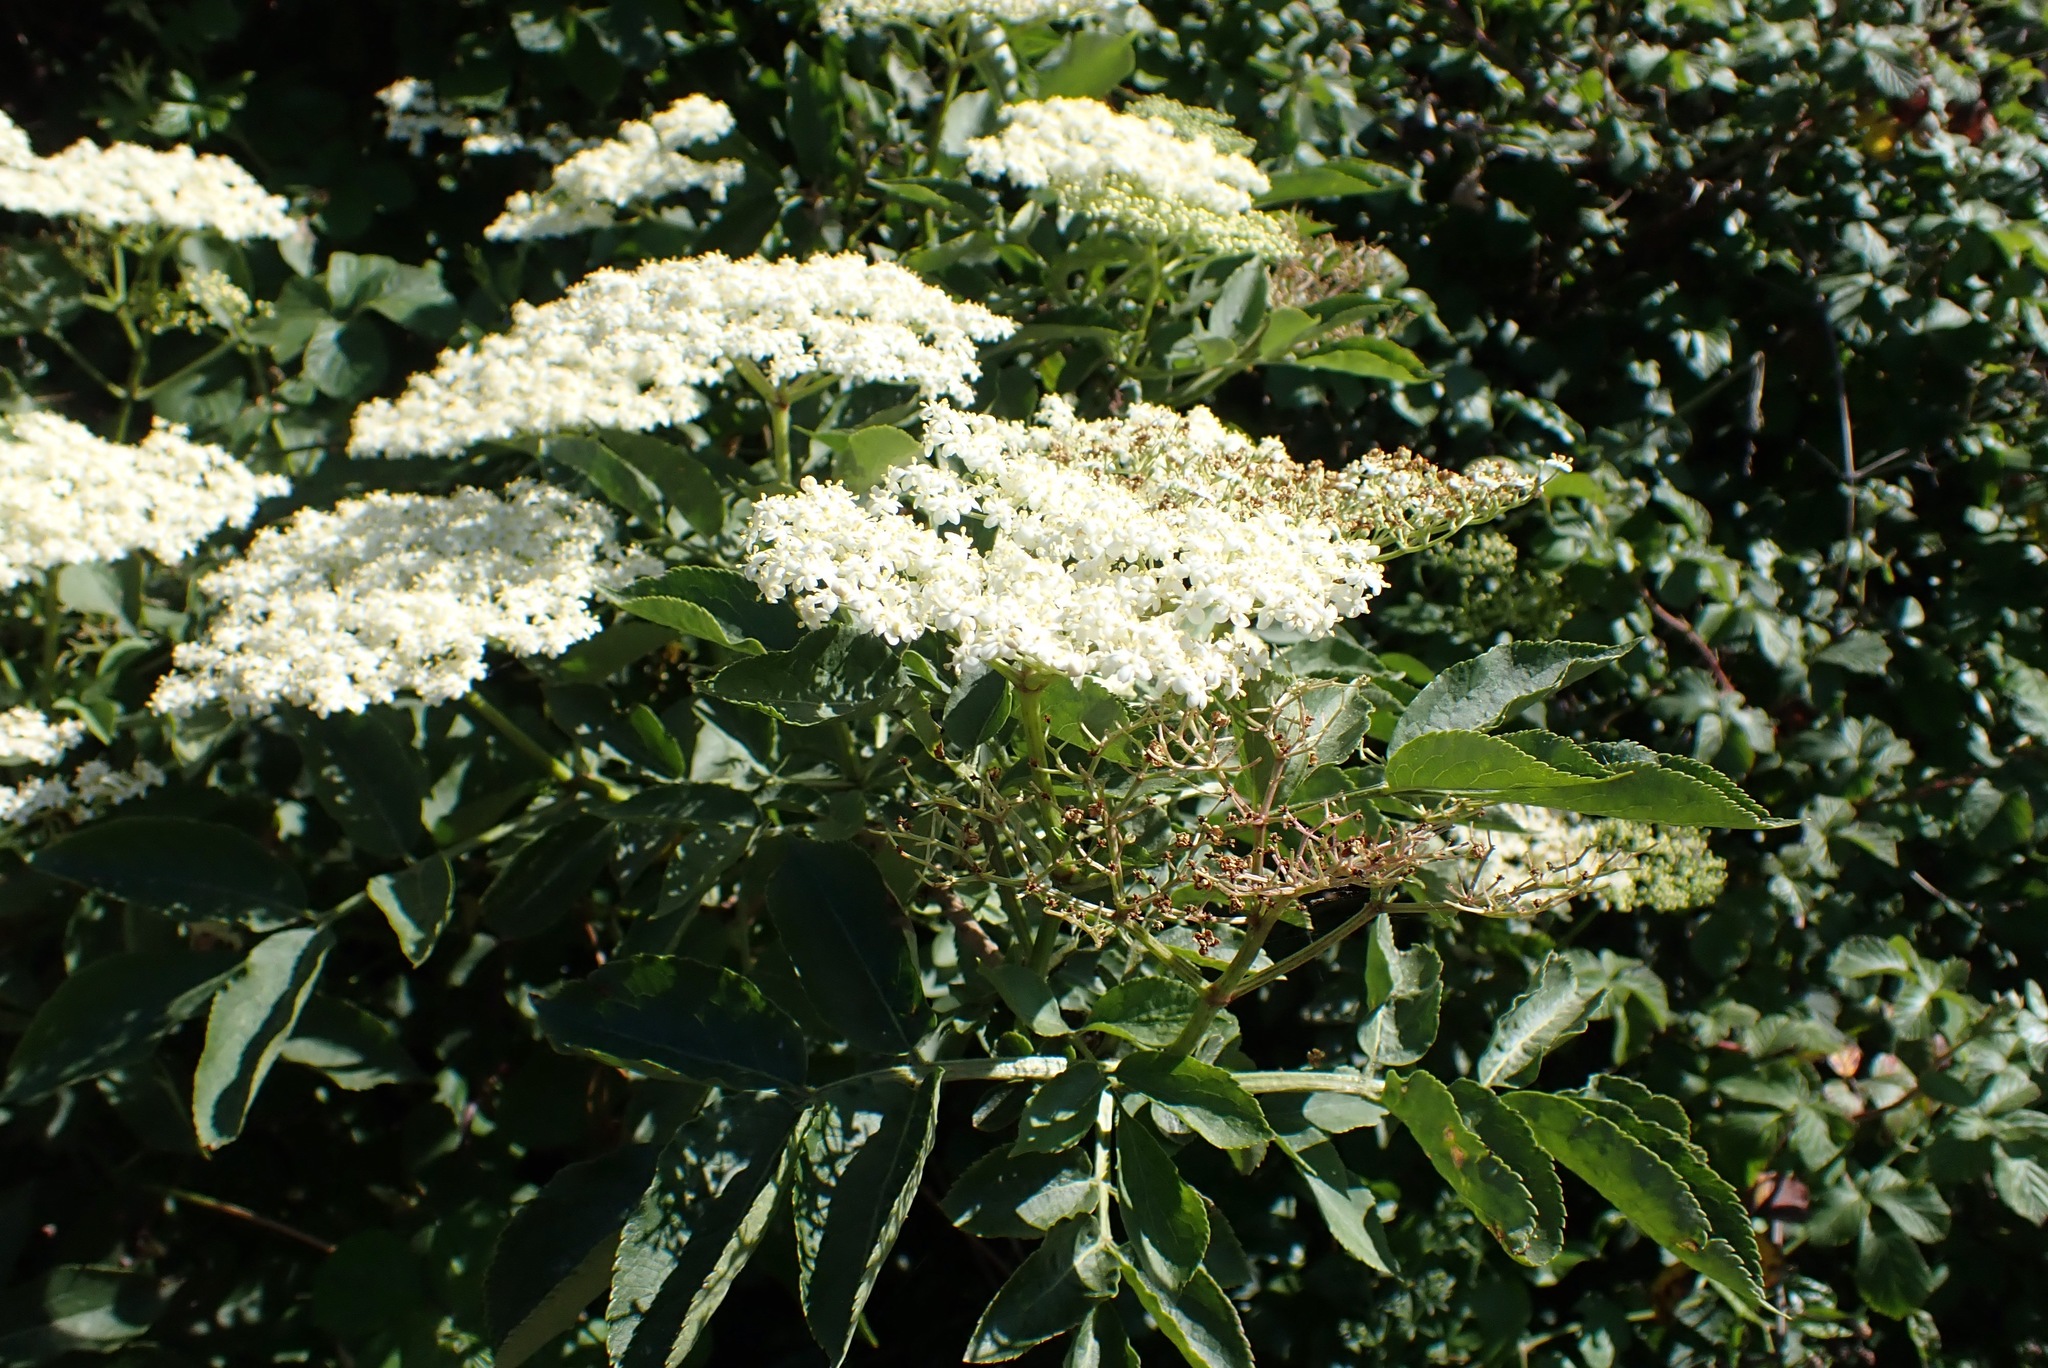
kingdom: Plantae
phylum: Tracheophyta
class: Magnoliopsida
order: Dipsacales
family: Viburnaceae
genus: Sambucus
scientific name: Sambucus nigra
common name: Elder
